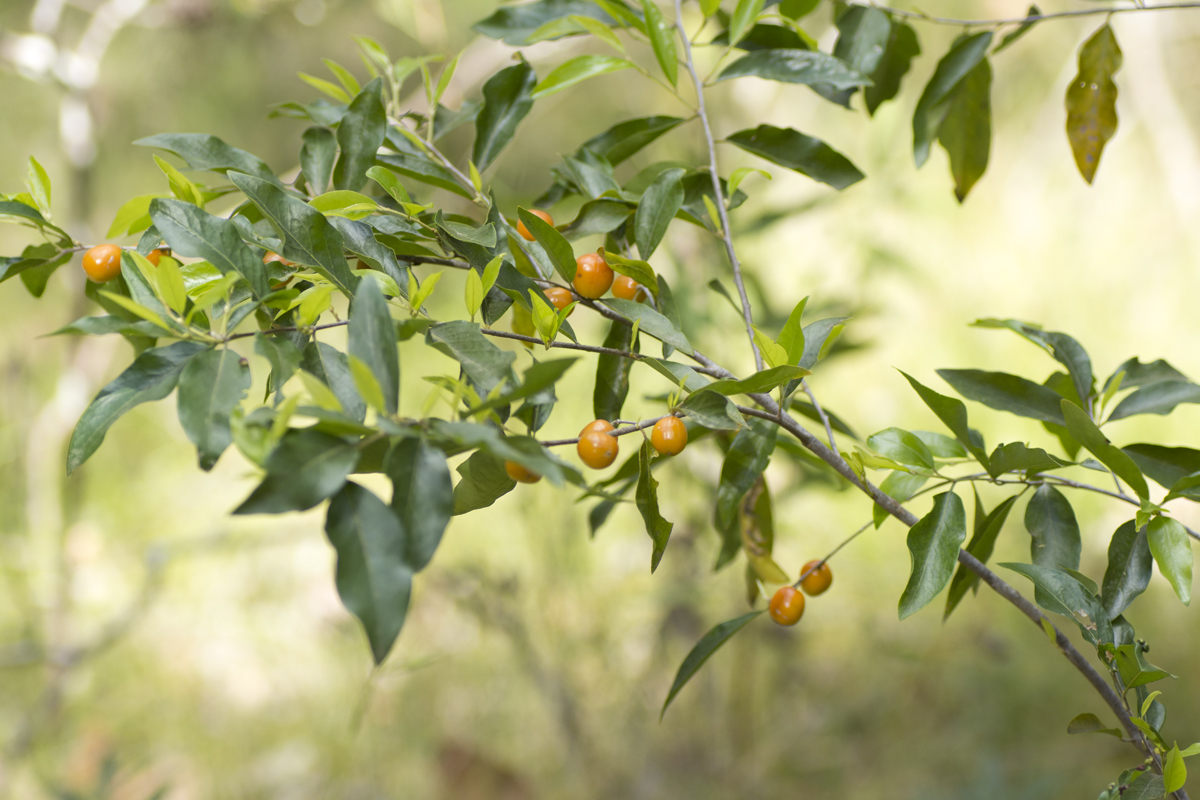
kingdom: Plantae
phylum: Tracheophyta
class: Magnoliopsida
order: Malpighiales
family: Picrodendraceae
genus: Petalostigma
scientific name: Petalostigma triloculare
